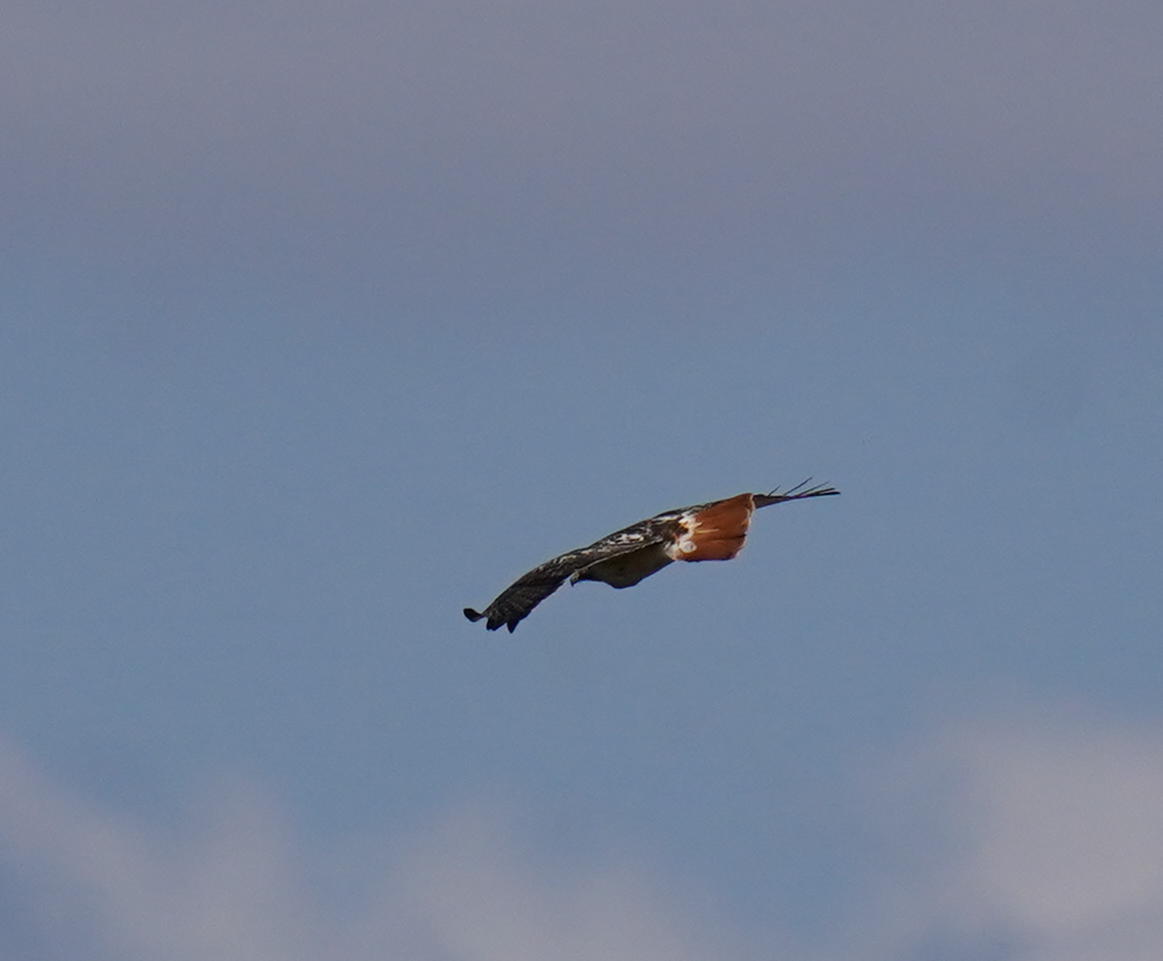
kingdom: Animalia
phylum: Chordata
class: Aves
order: Accipitriformes
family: Accipitridae
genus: Buteo
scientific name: Buteo jamaicensis
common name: Red-tailed hawk
